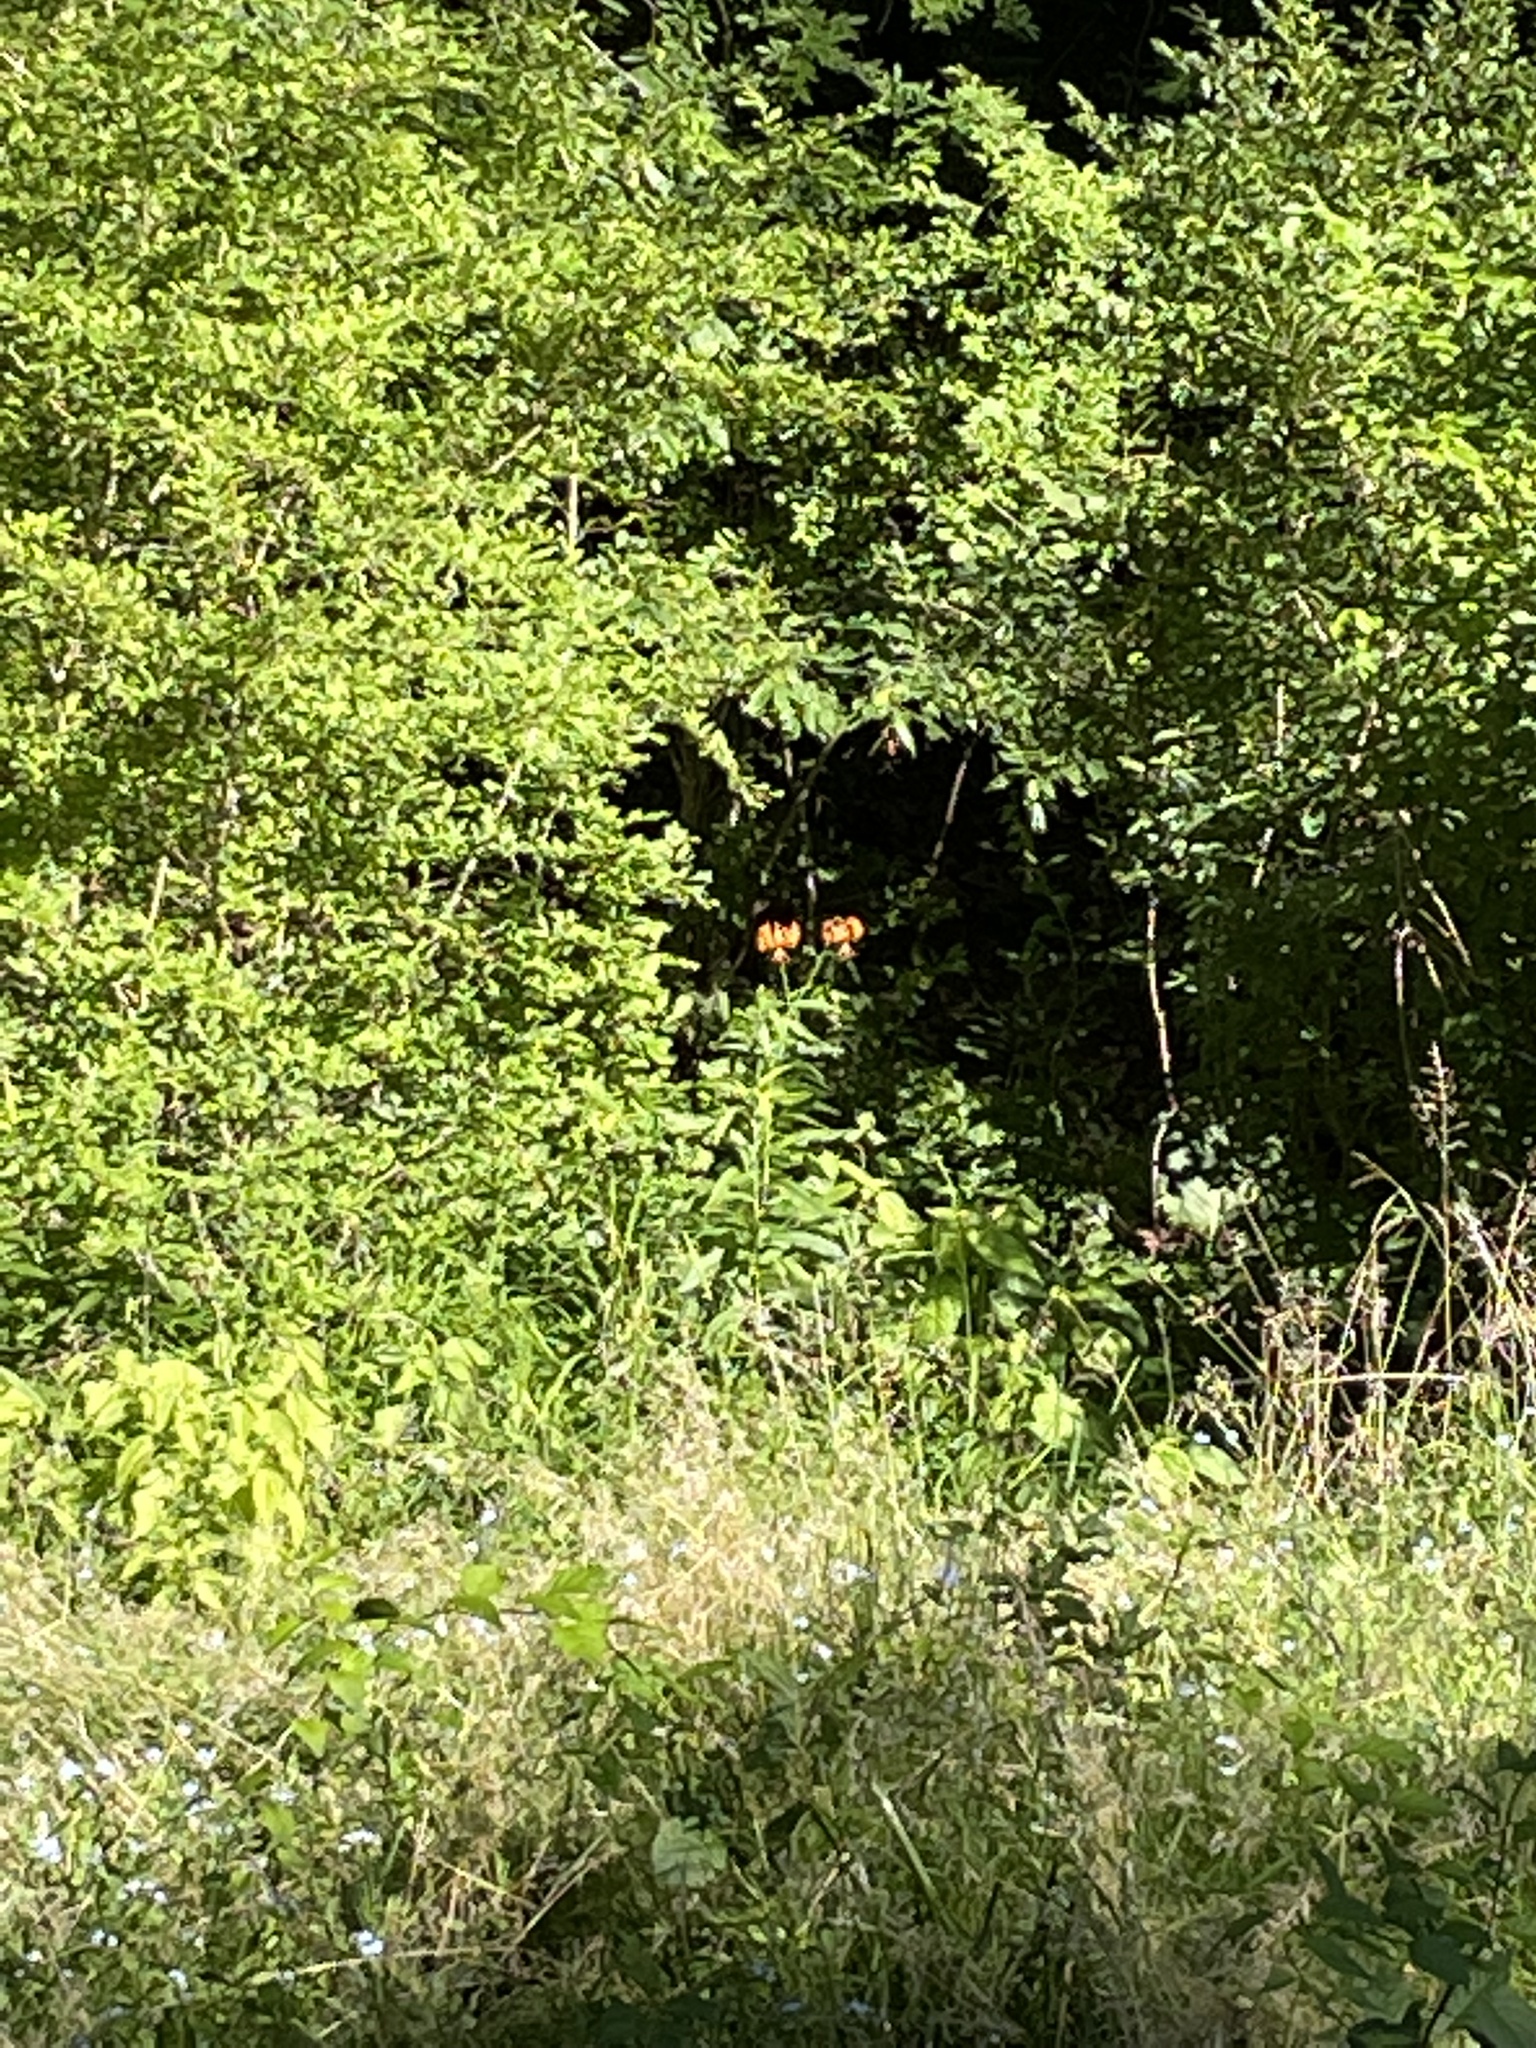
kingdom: Plantae
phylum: Tracheophyta
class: Liliopsida
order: Liliales
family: Liliaceae
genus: Lilium
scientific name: Lilium michiganense
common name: Michigan lily
